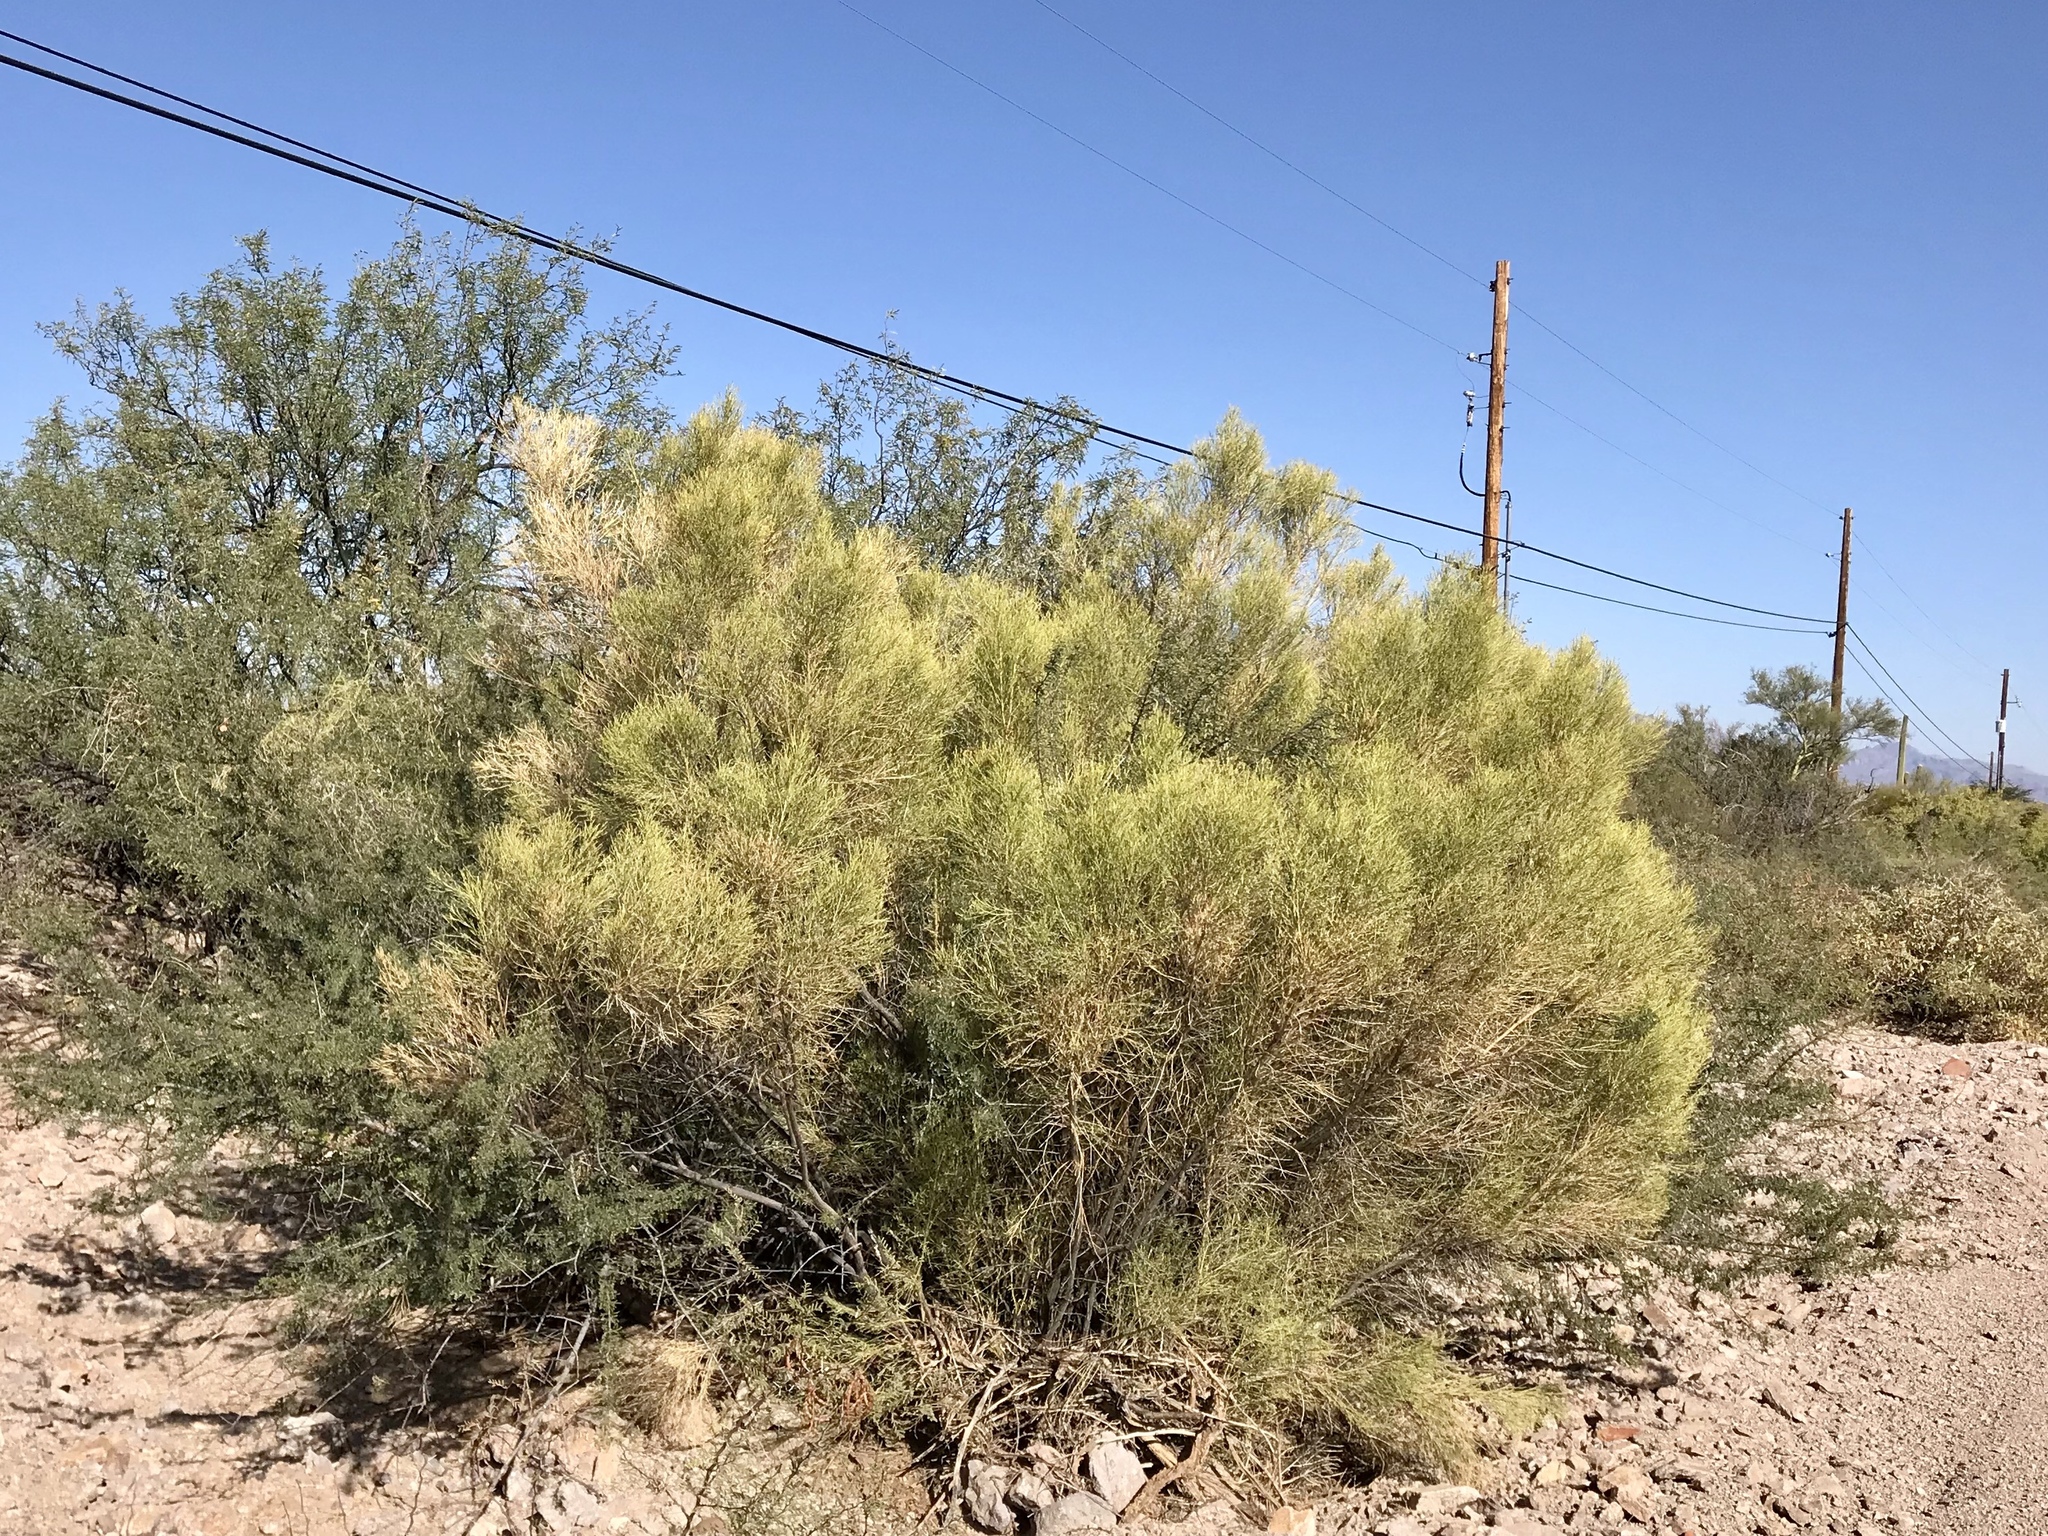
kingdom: Plantae
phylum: Tracheophyta
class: Magnoliopsida
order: Asterales
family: Asteraceae
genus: Baccharis
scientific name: Baccharis sarothroides
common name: Desert-broom
